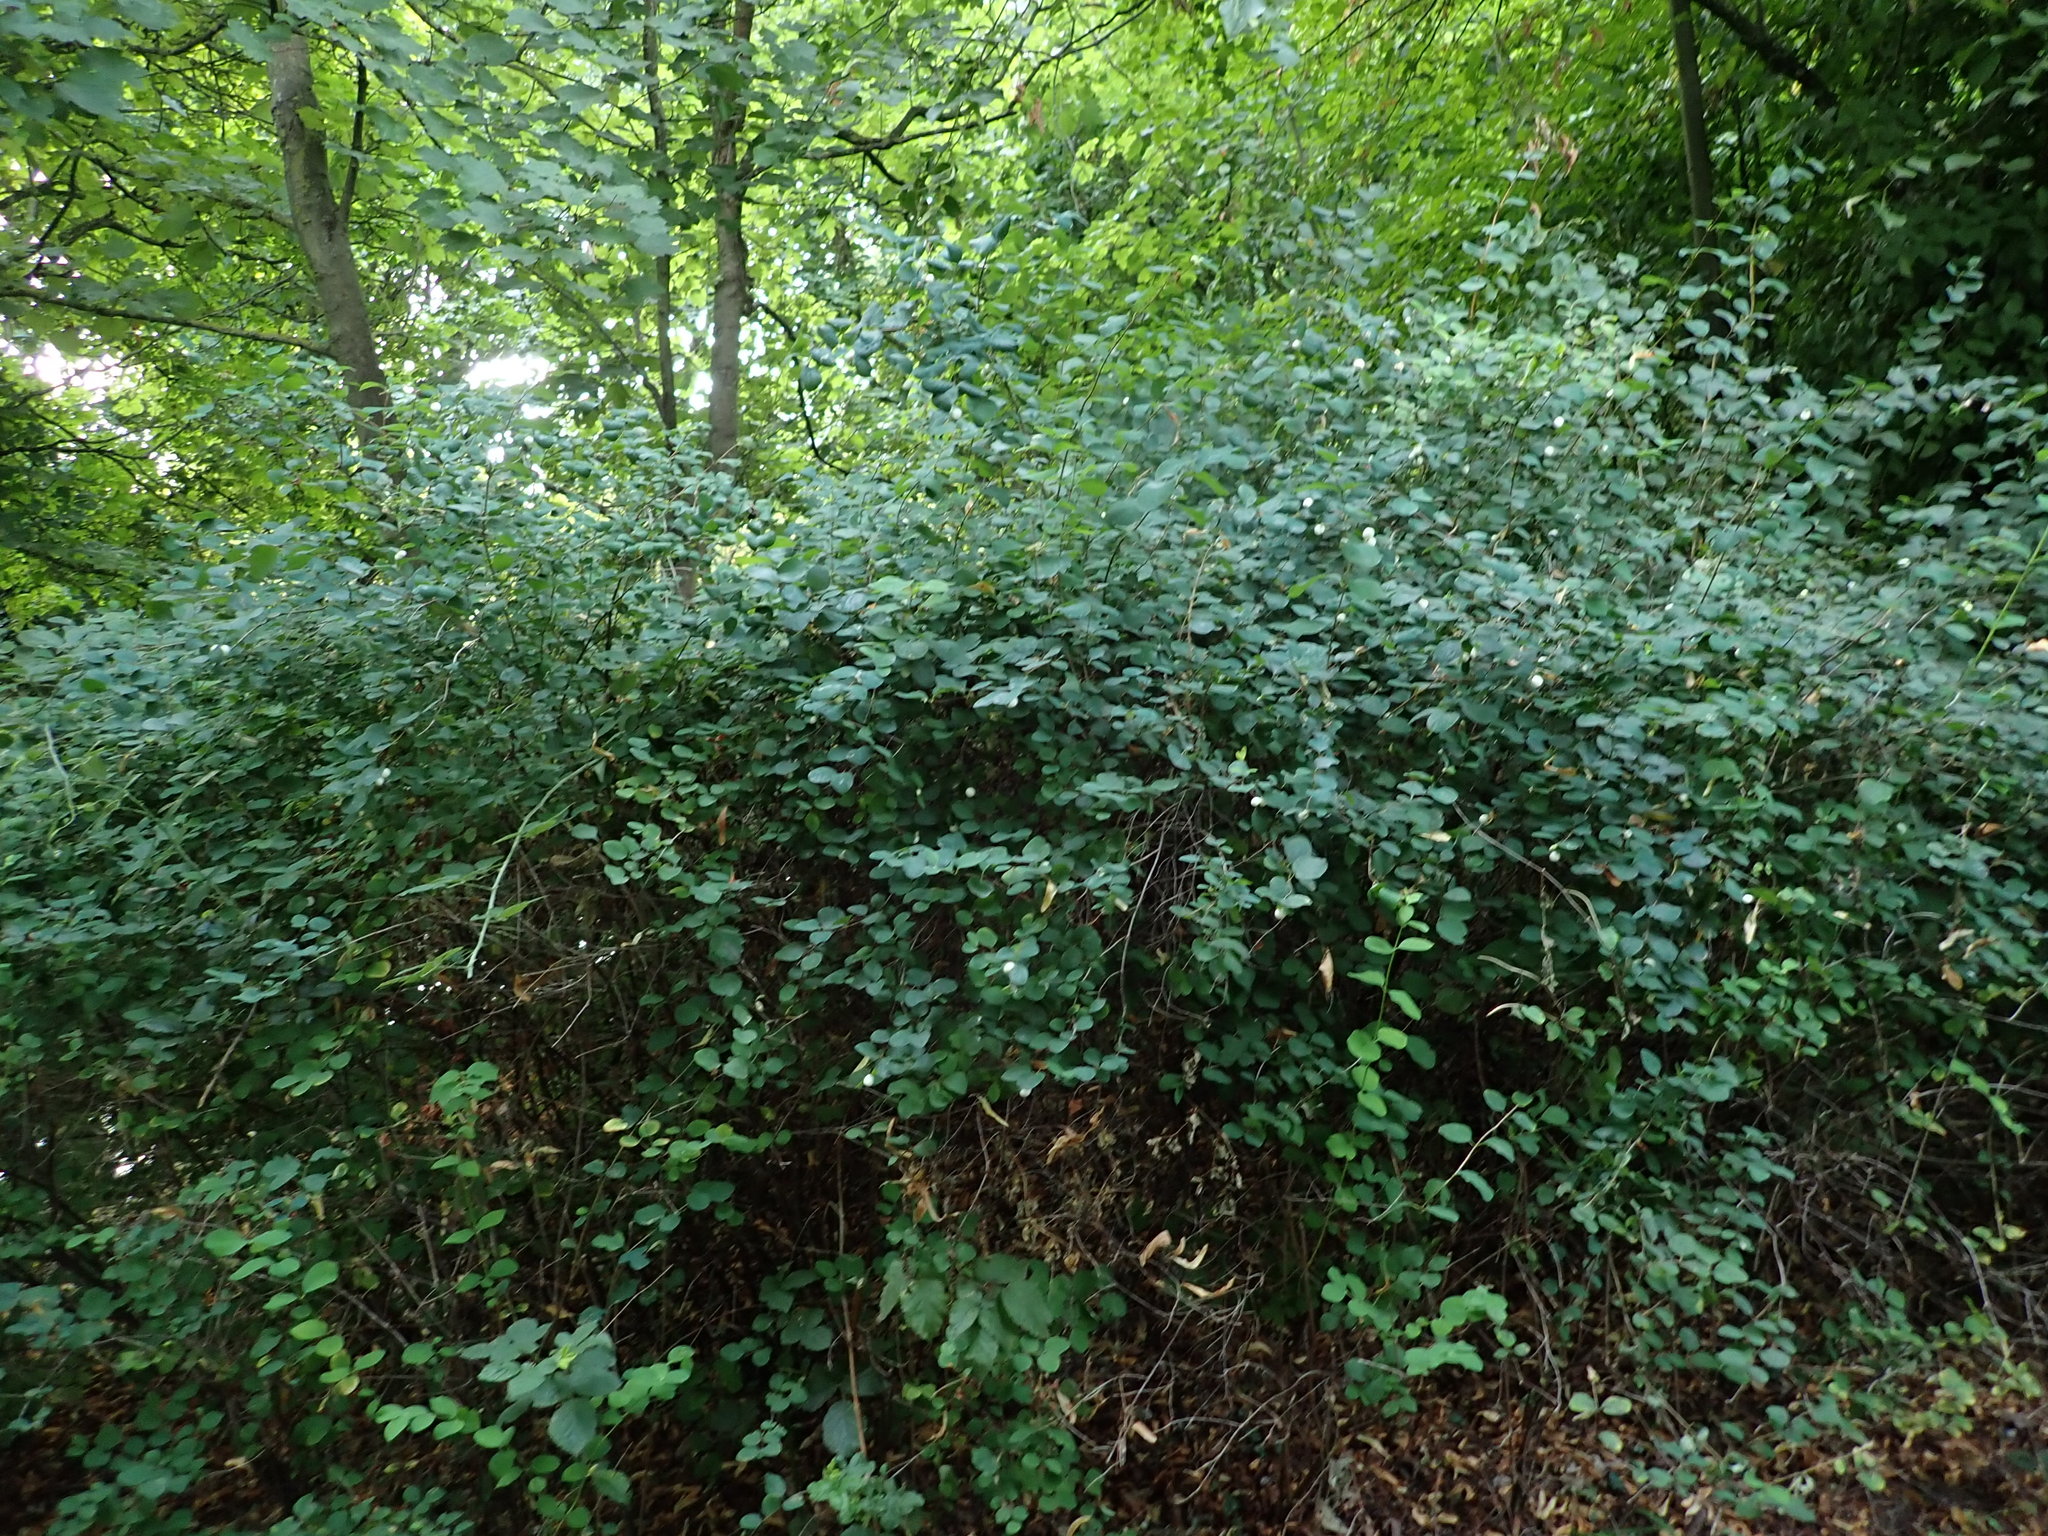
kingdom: Plantae
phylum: Tracheophyta
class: Magnoliopsida
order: Dipsacales
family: Caprifoliaceae
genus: Symphoricarpos
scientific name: Symphoricarpos albus
